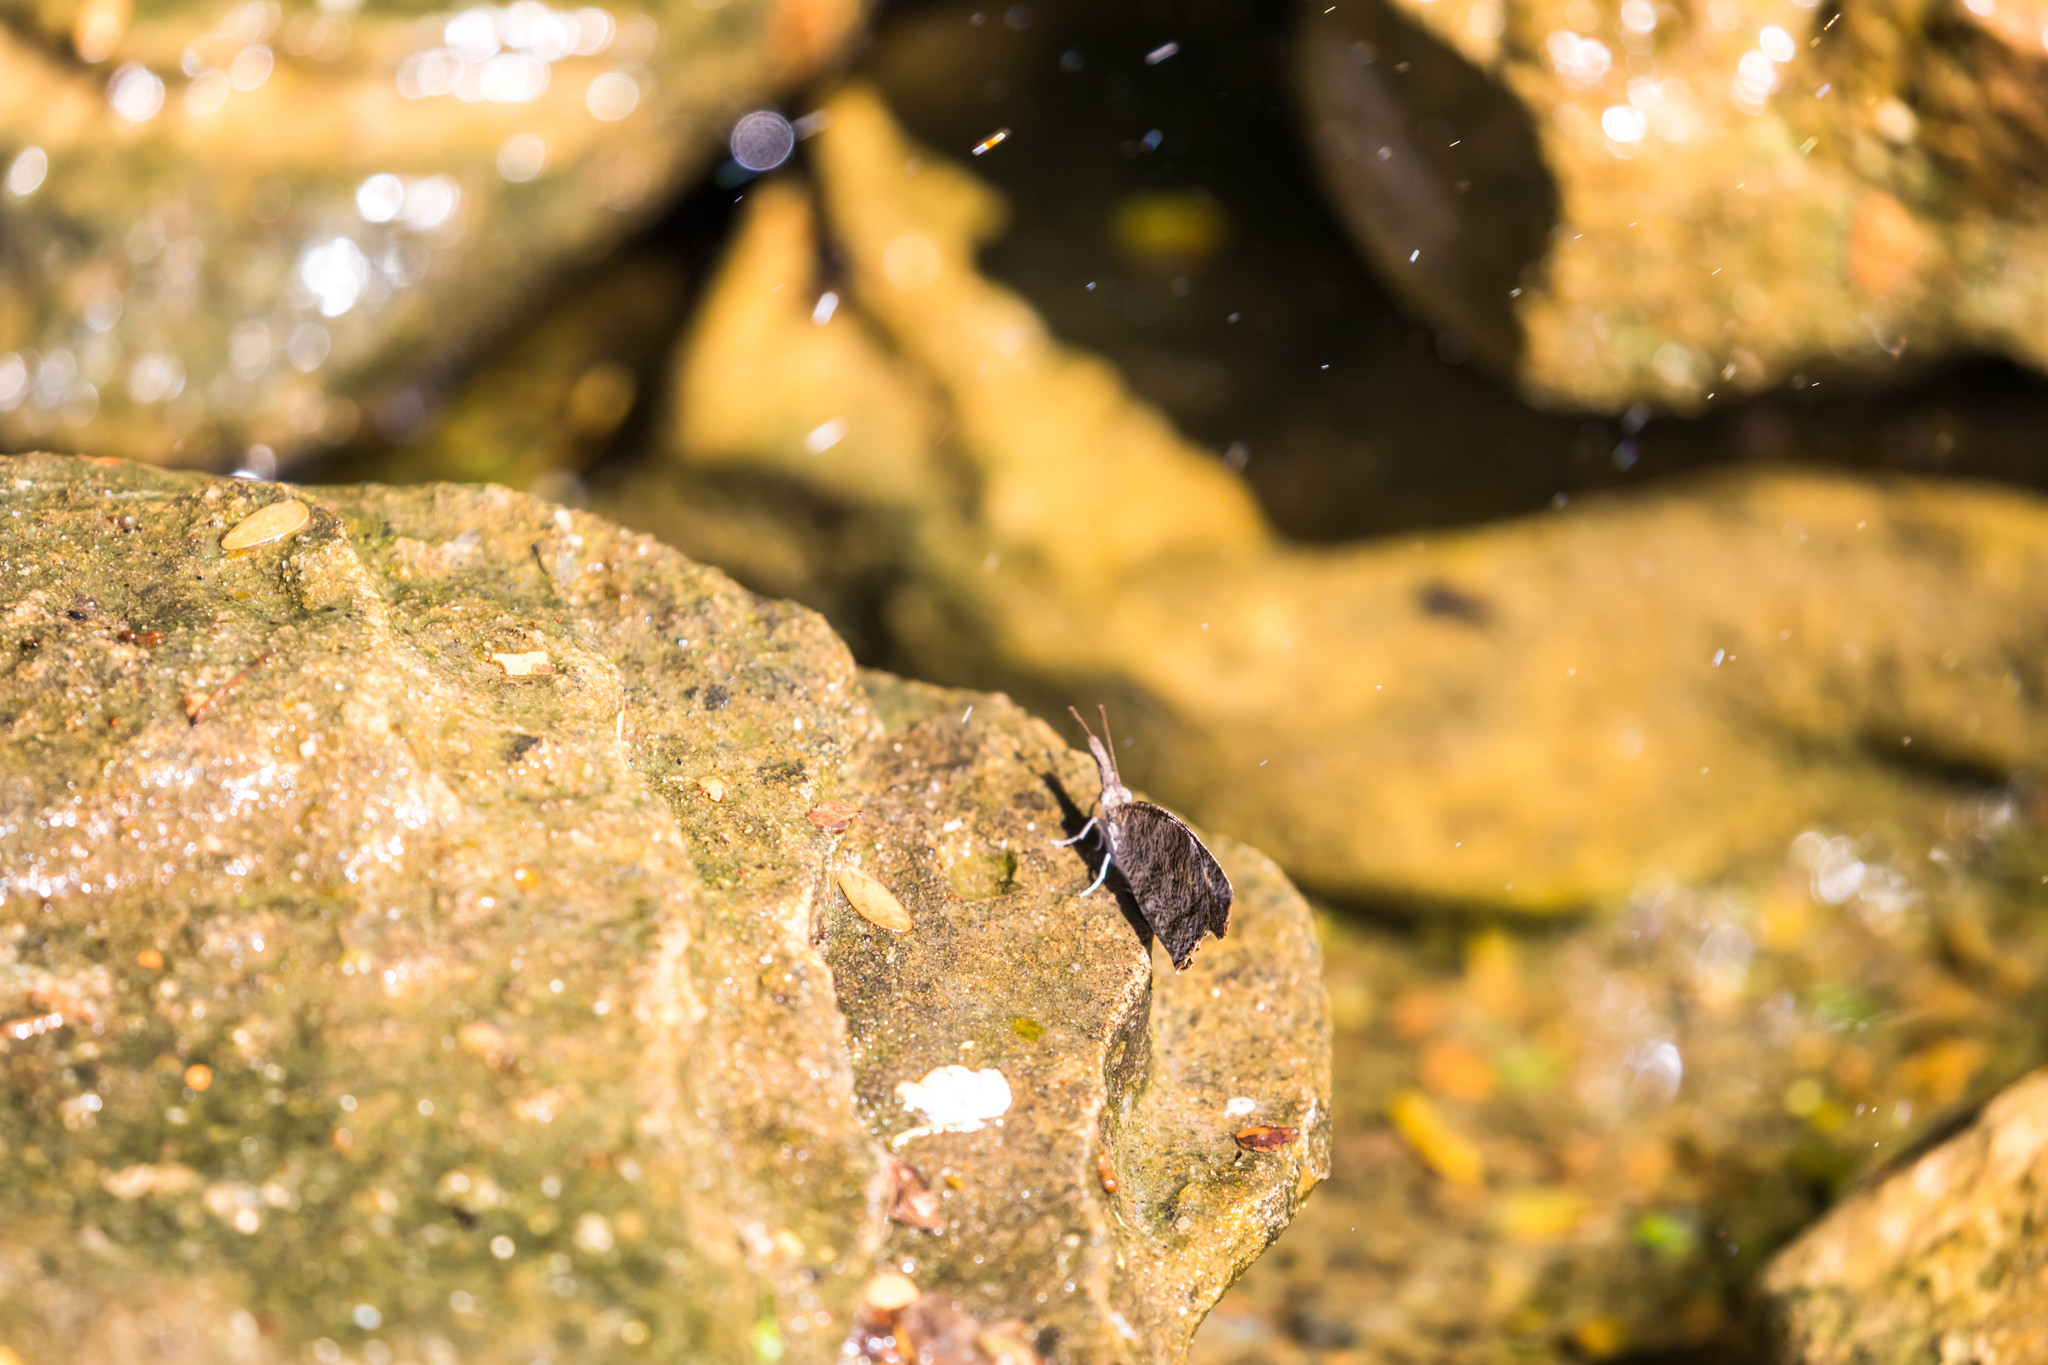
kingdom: Animalia
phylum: Arthropoda
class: Insecta
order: Lepidoptera
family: Nymphalidae
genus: Libytheana
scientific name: Libytheana carinenta
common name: American snout
